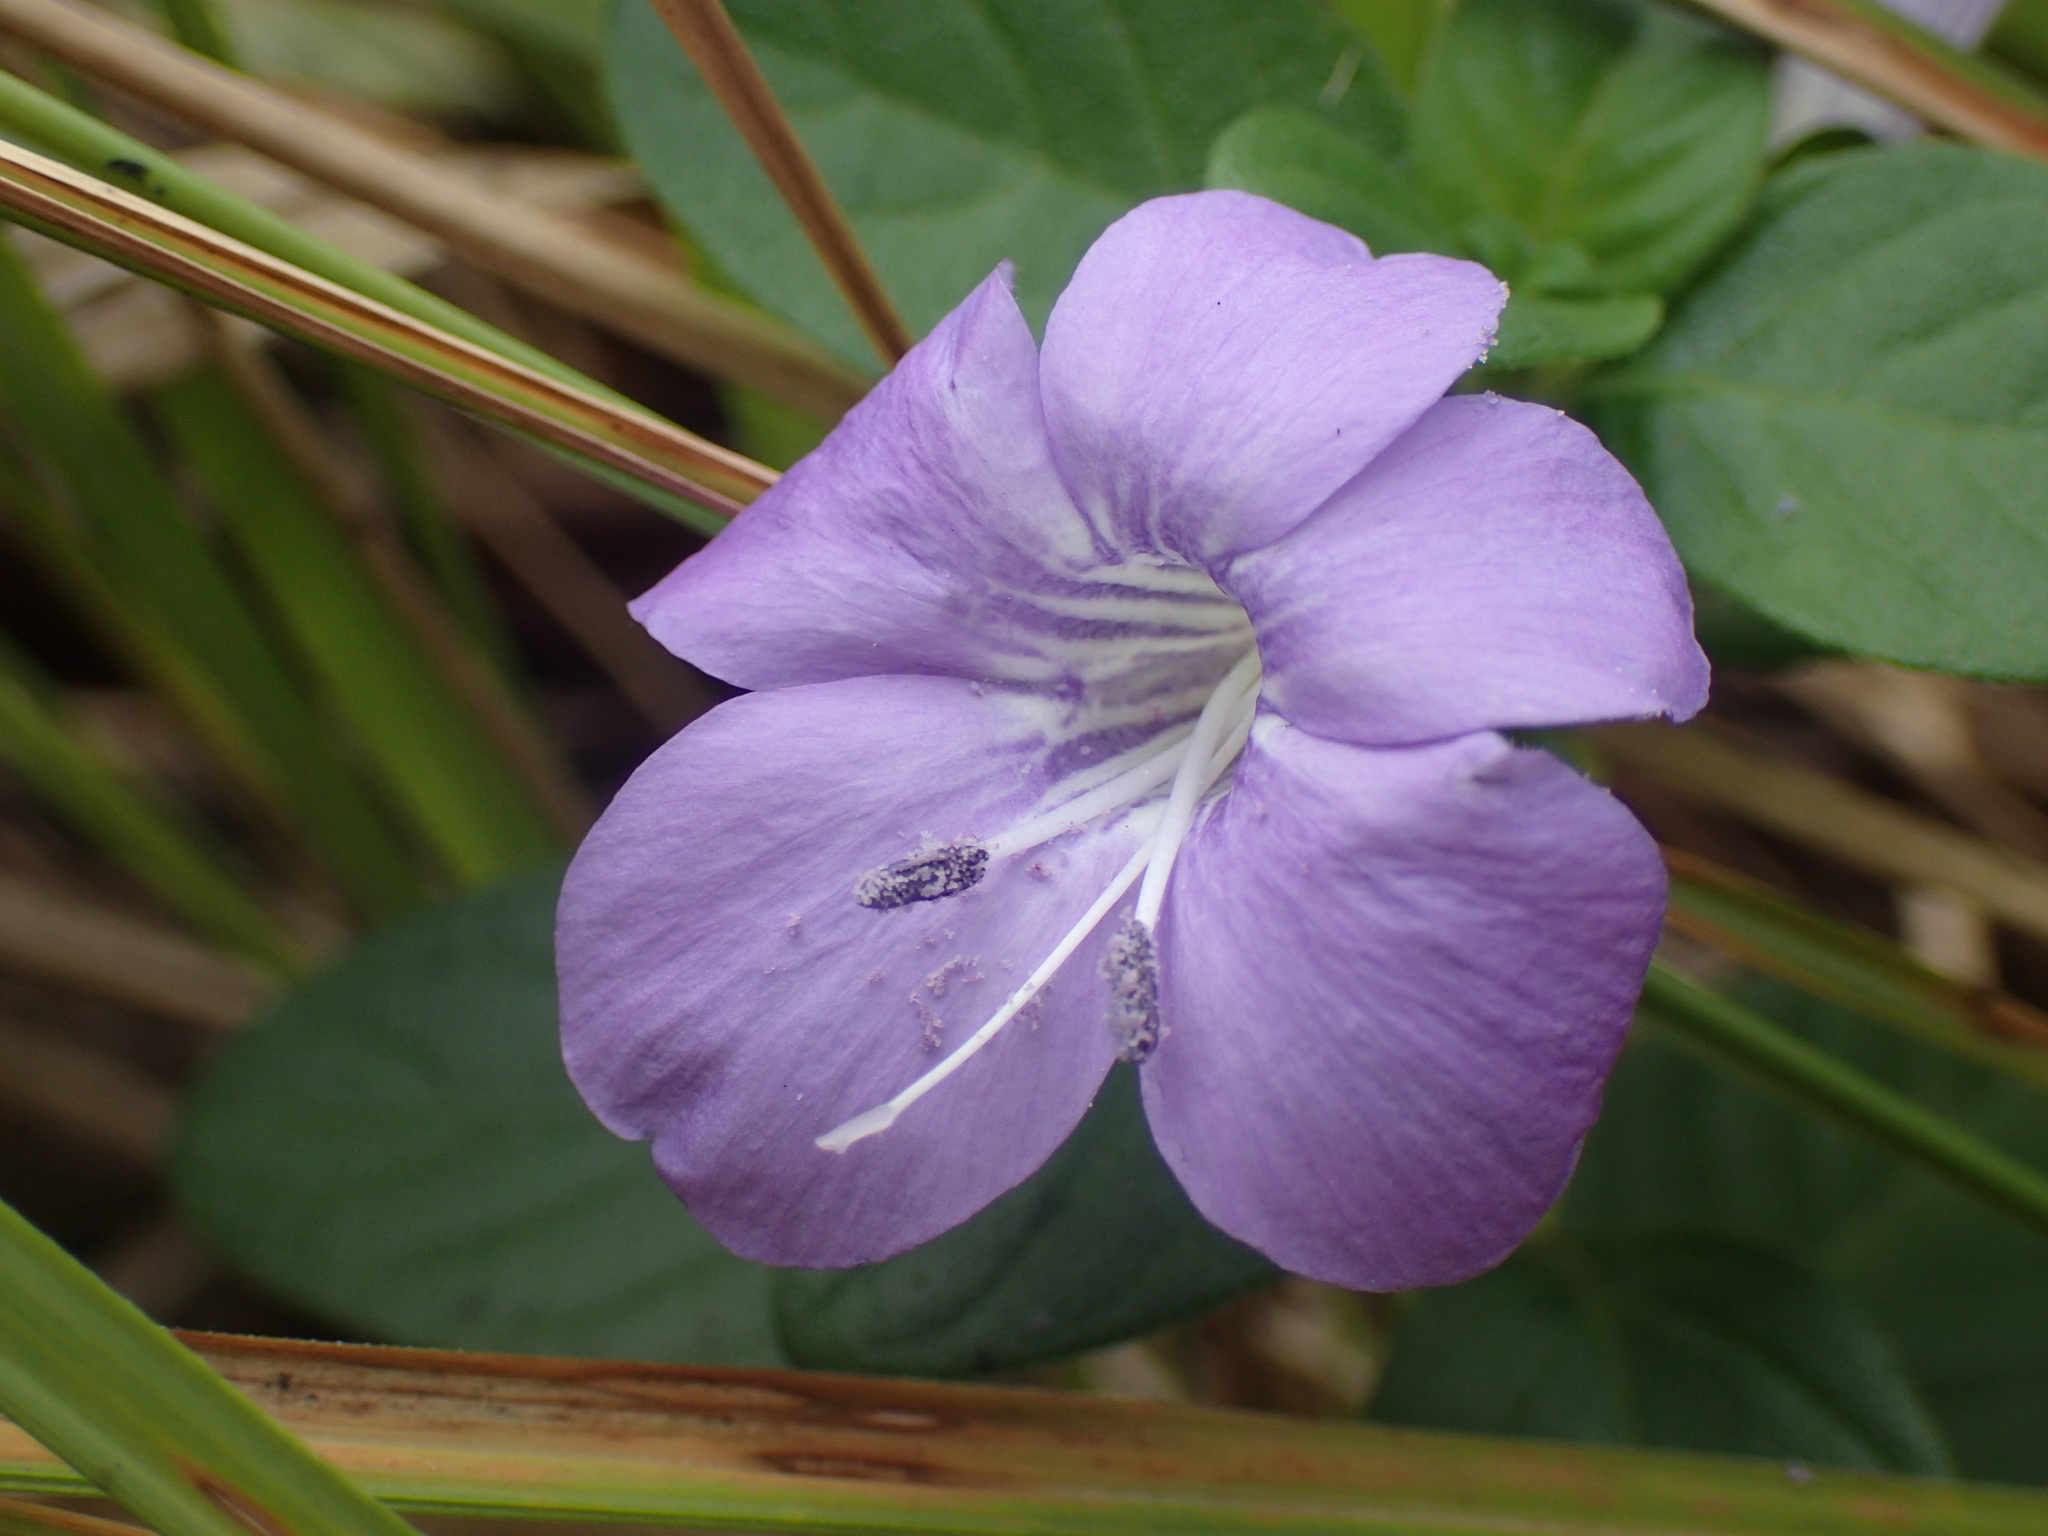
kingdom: Plantae
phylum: Tracheophyta
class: Magnoliopsida
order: Lamiales
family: Acanthaceae
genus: Barleria
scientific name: Barleria obtusa
